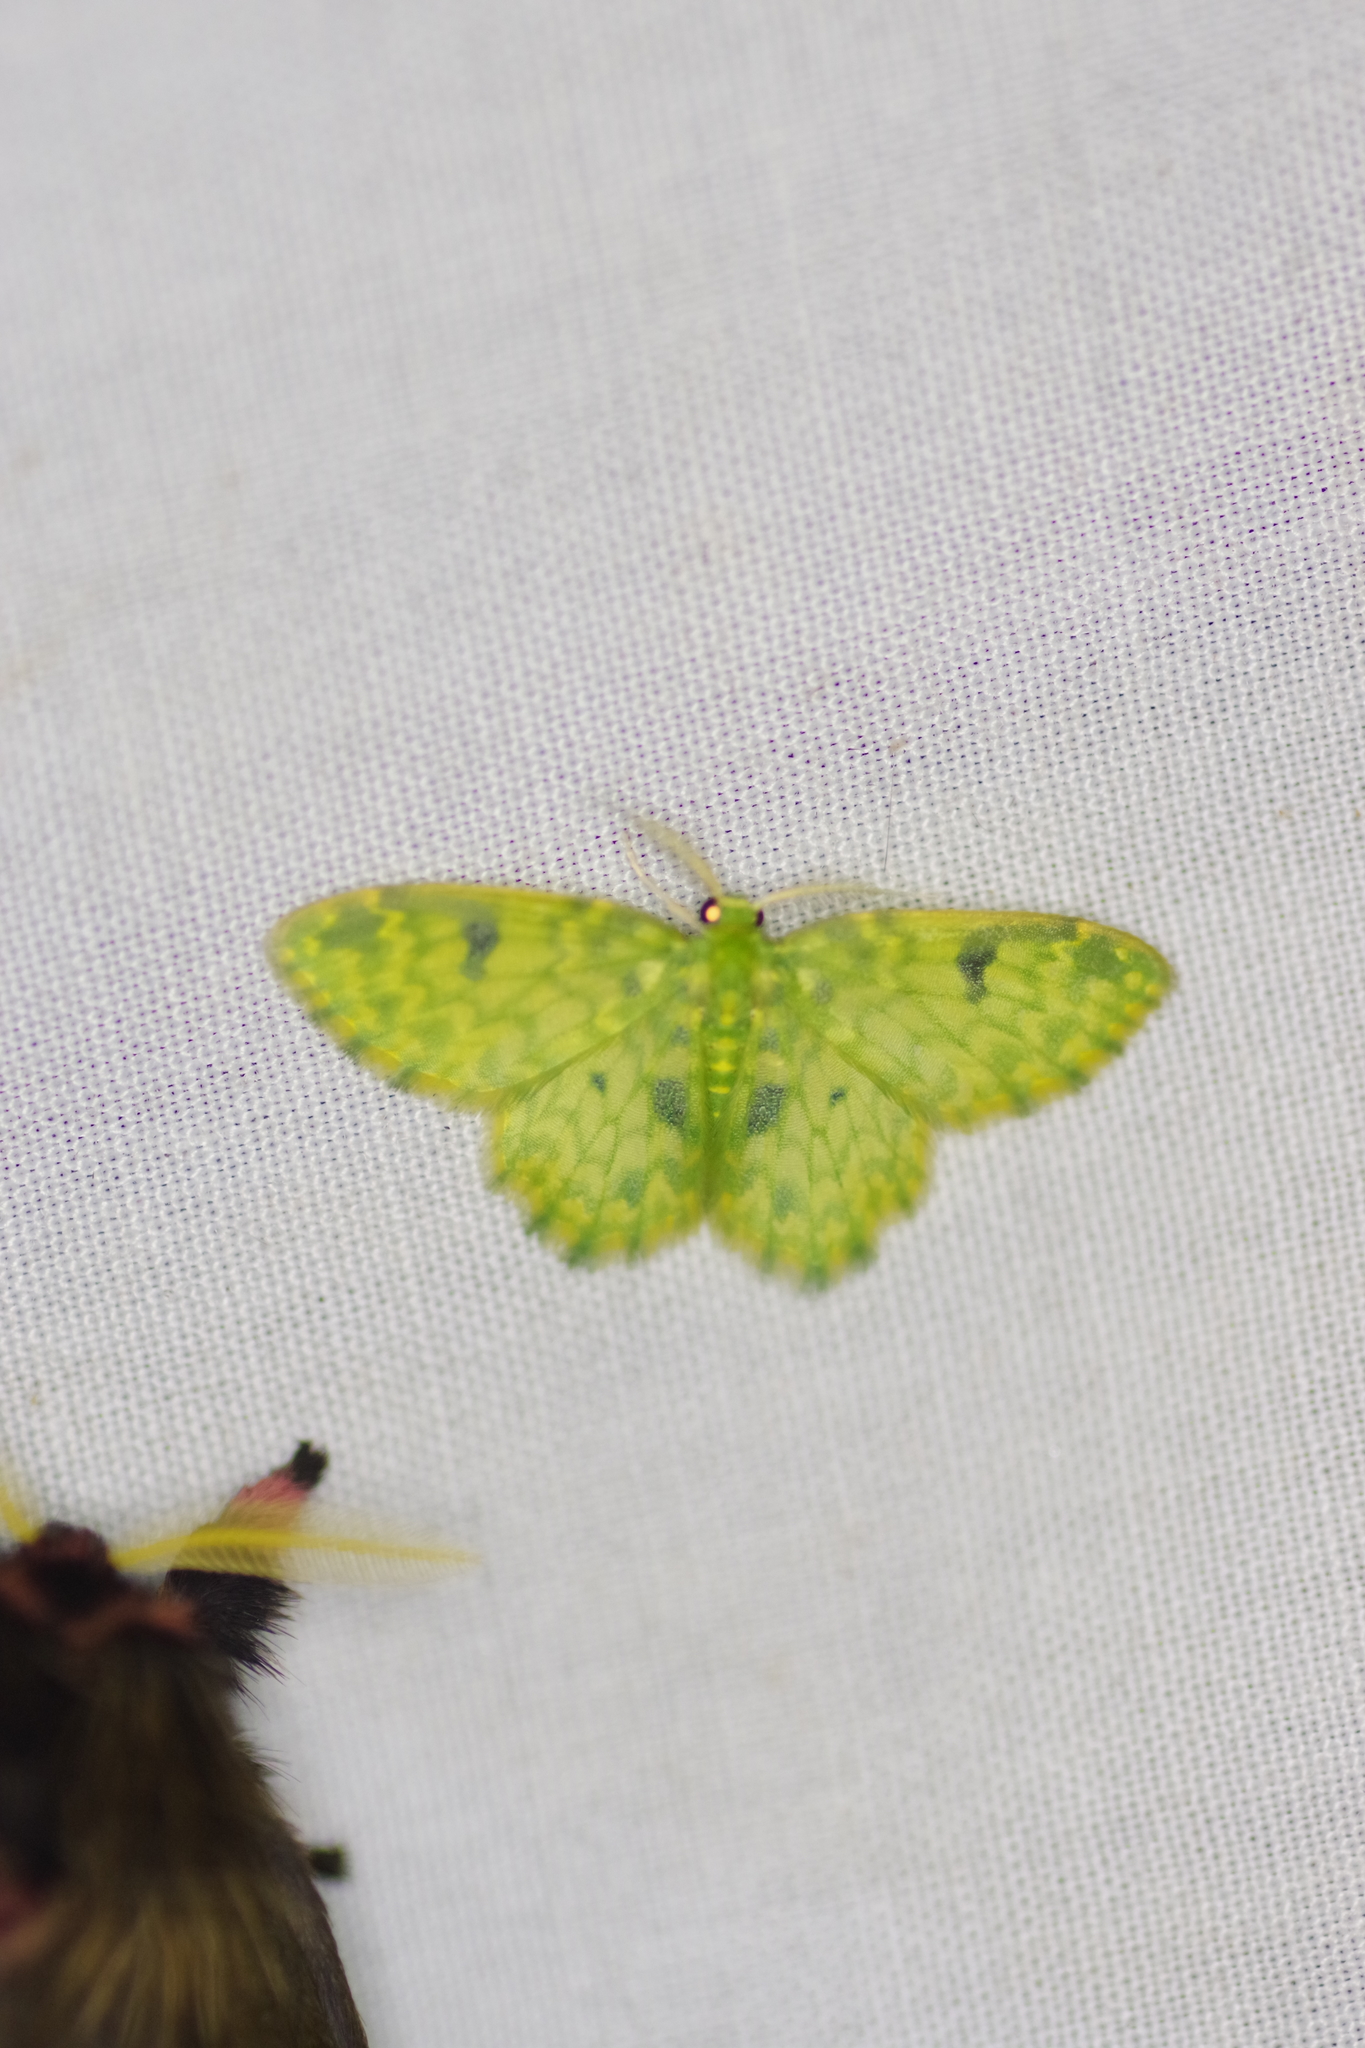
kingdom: Animalia
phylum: Arthropoda
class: Insecta
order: Lepidoptera
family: Geometridae
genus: Hydata
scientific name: Hydata stigmatica
